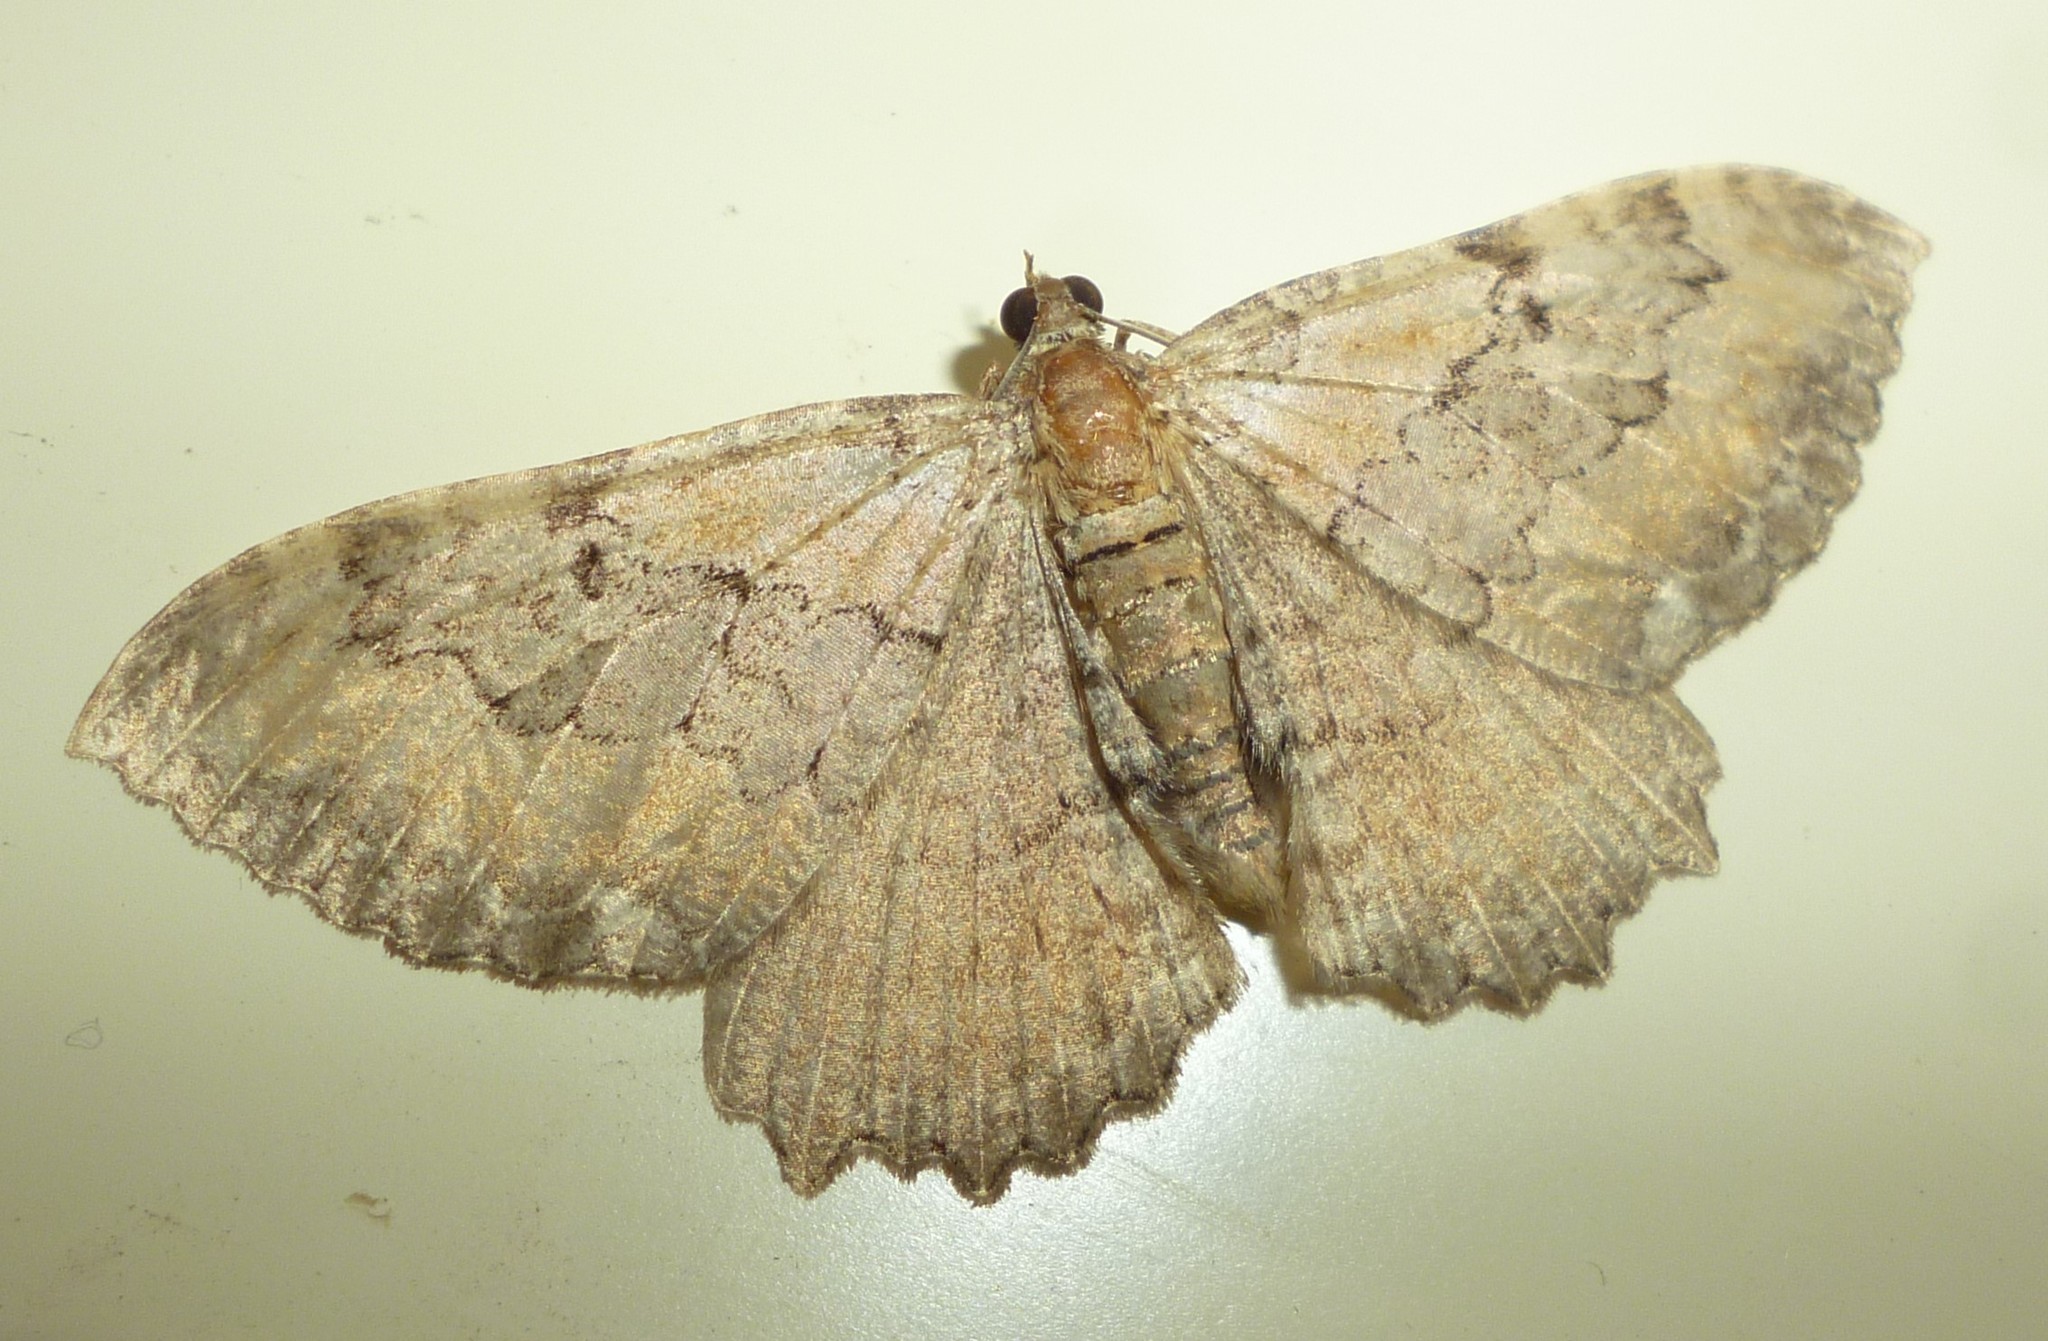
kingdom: Animalia
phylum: Arthropoda
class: Insecta
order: Lepidoptera
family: Geometridae
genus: Rheumaptera
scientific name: Rheumaptera
